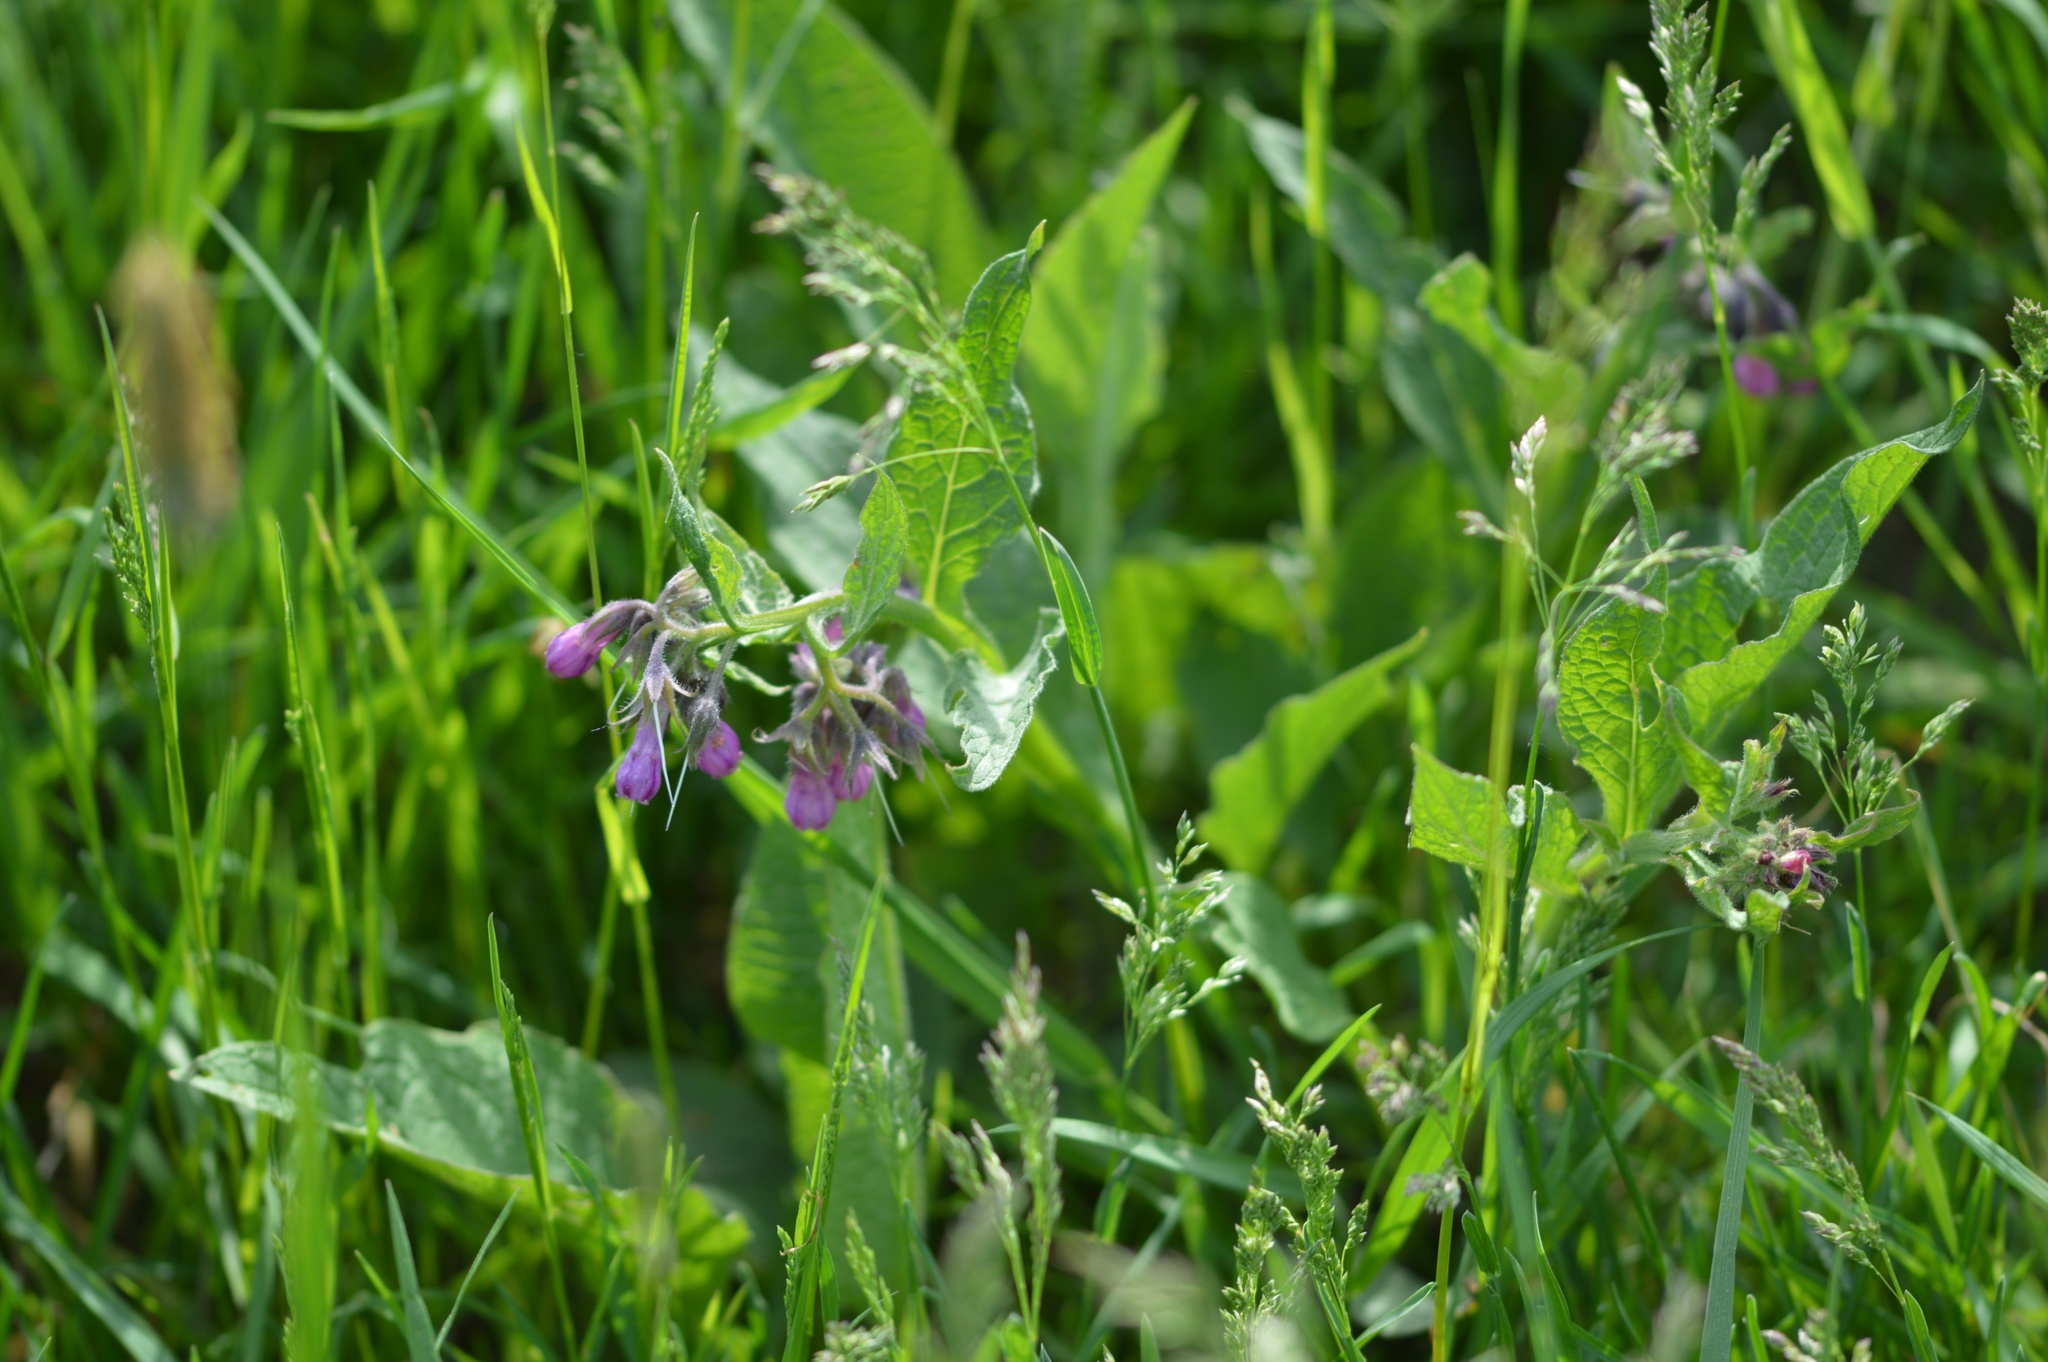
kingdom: Plantae
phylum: Tracheophyta
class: Magnoliopsida
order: Boraginales
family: Boraginaceae
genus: Symphytum
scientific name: Symphytum officinale
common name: Common comfrey
